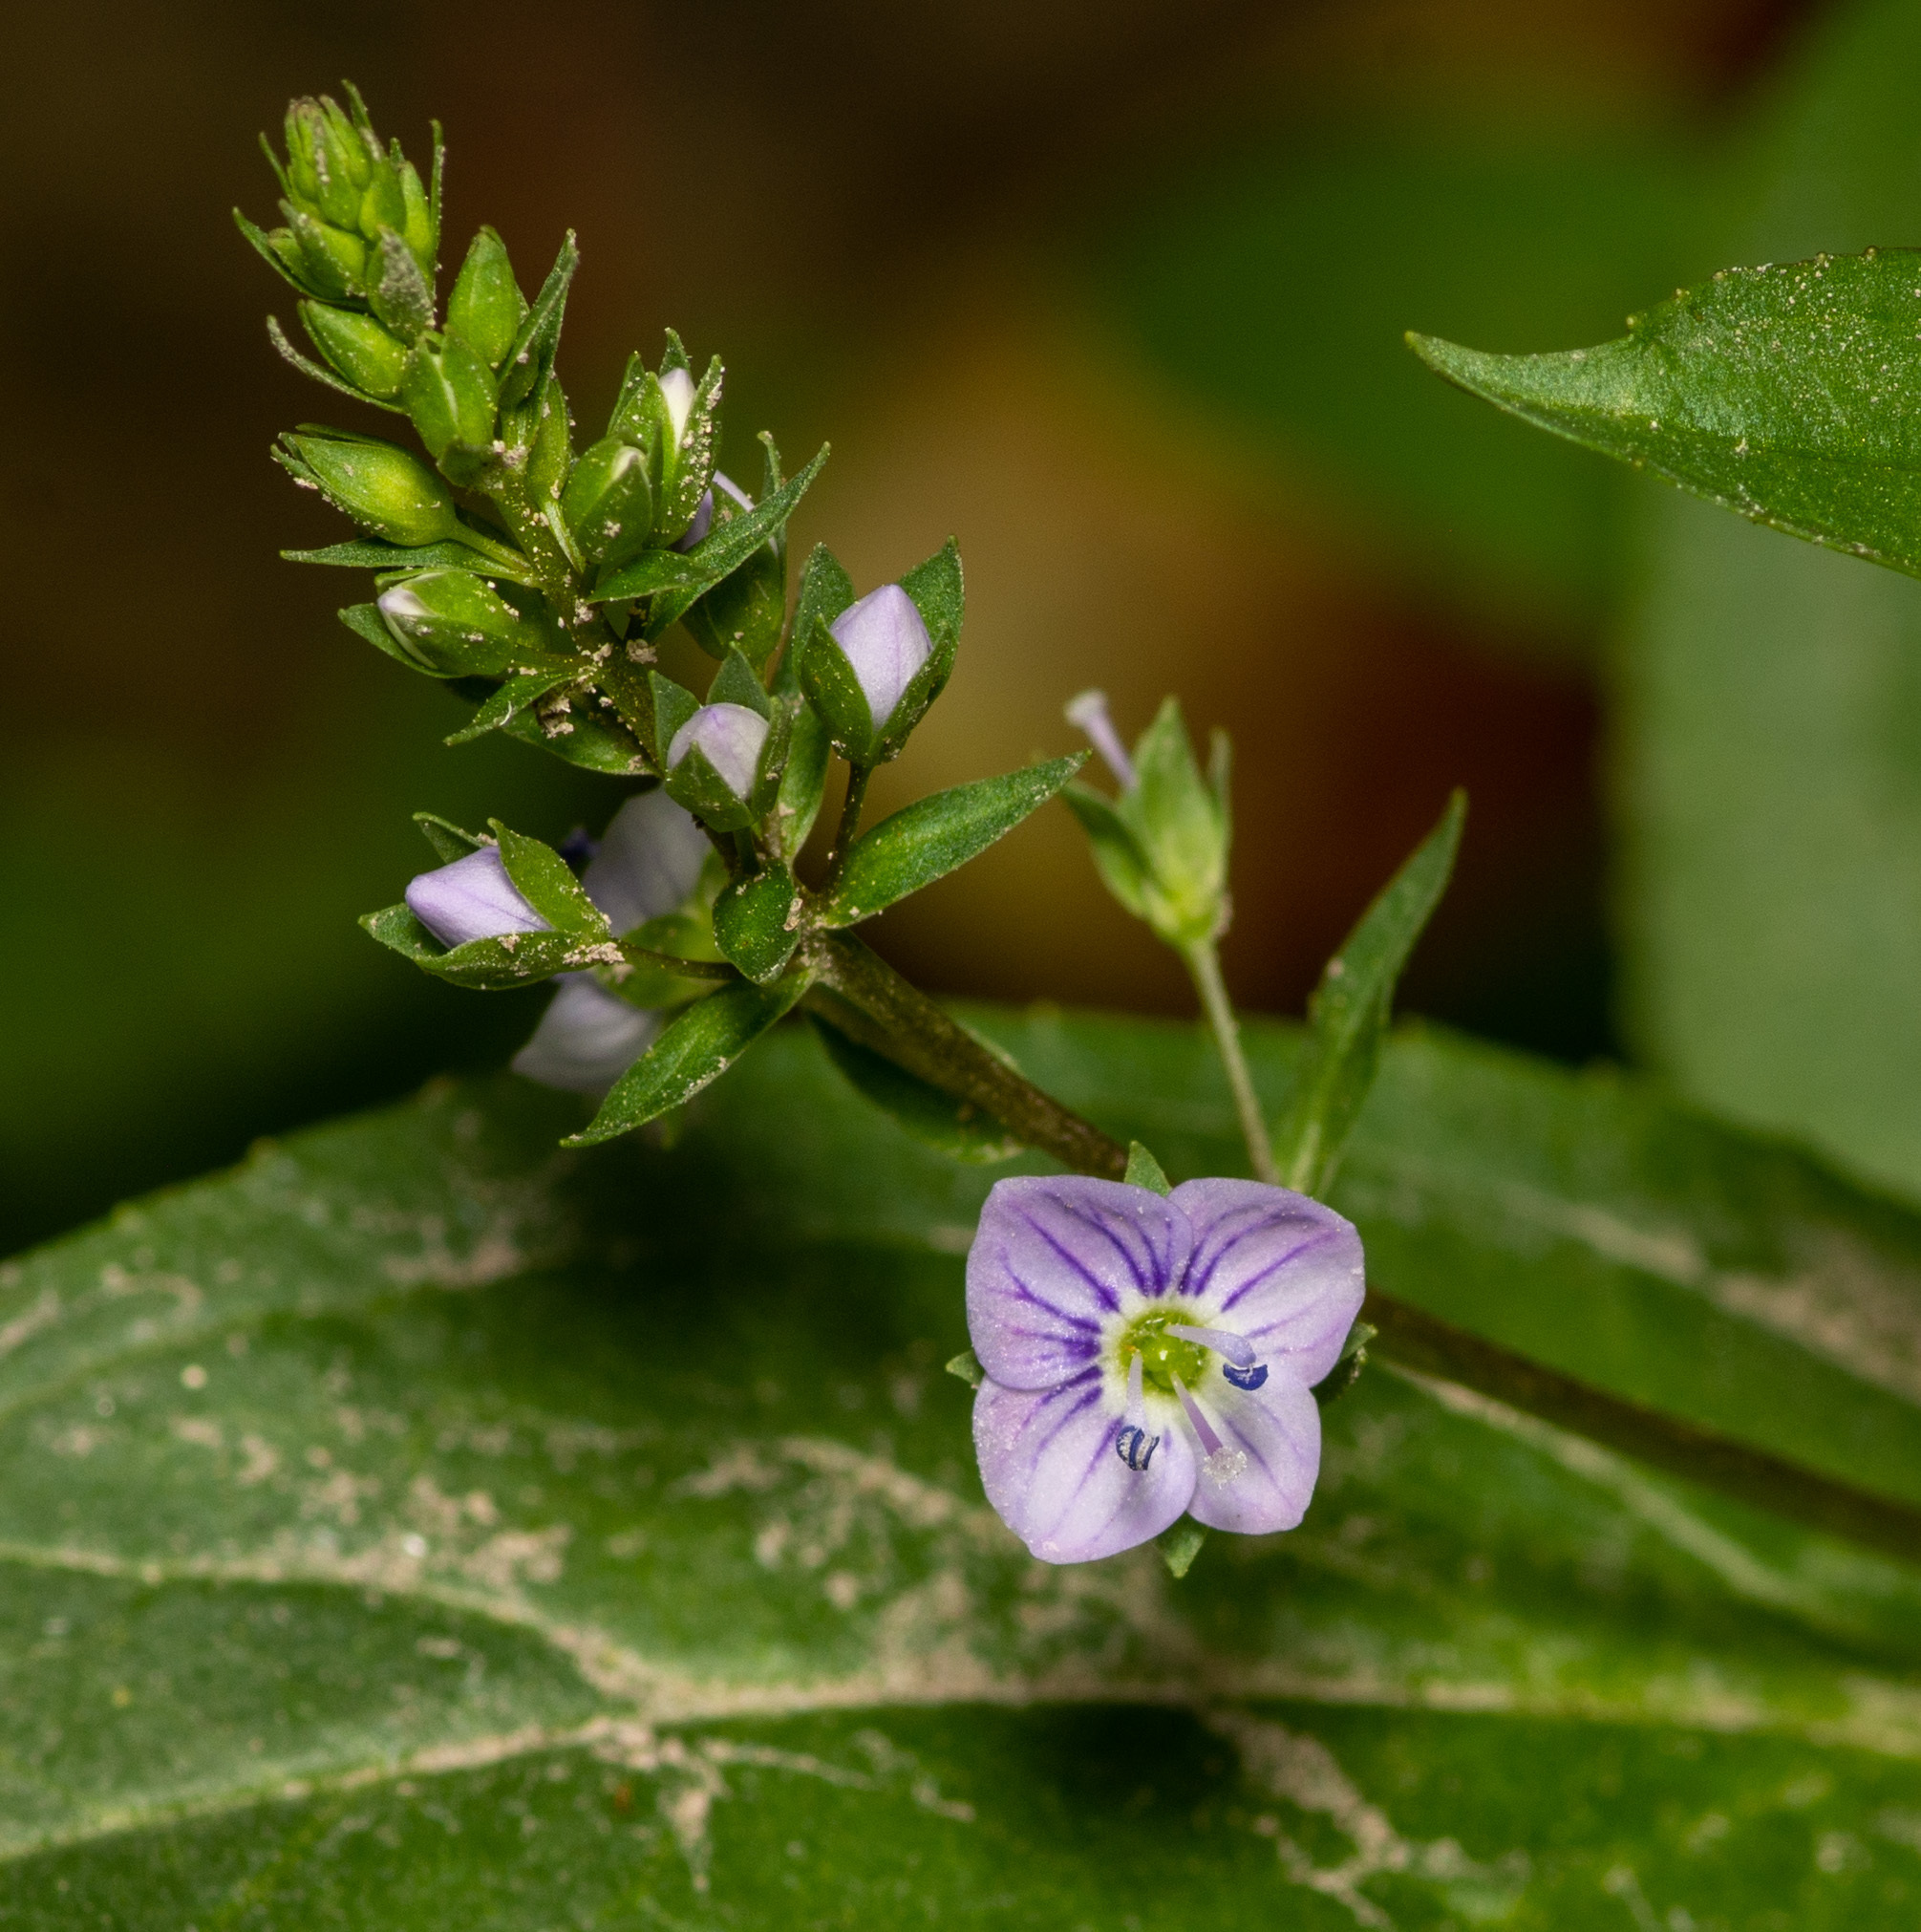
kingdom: Plantae
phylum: Tracheophyta
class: Magnoliopsida
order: Lamiales
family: Plantaginaceae
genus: Veronica
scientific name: Veronica anagallis-aquatica
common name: Water speedwell
